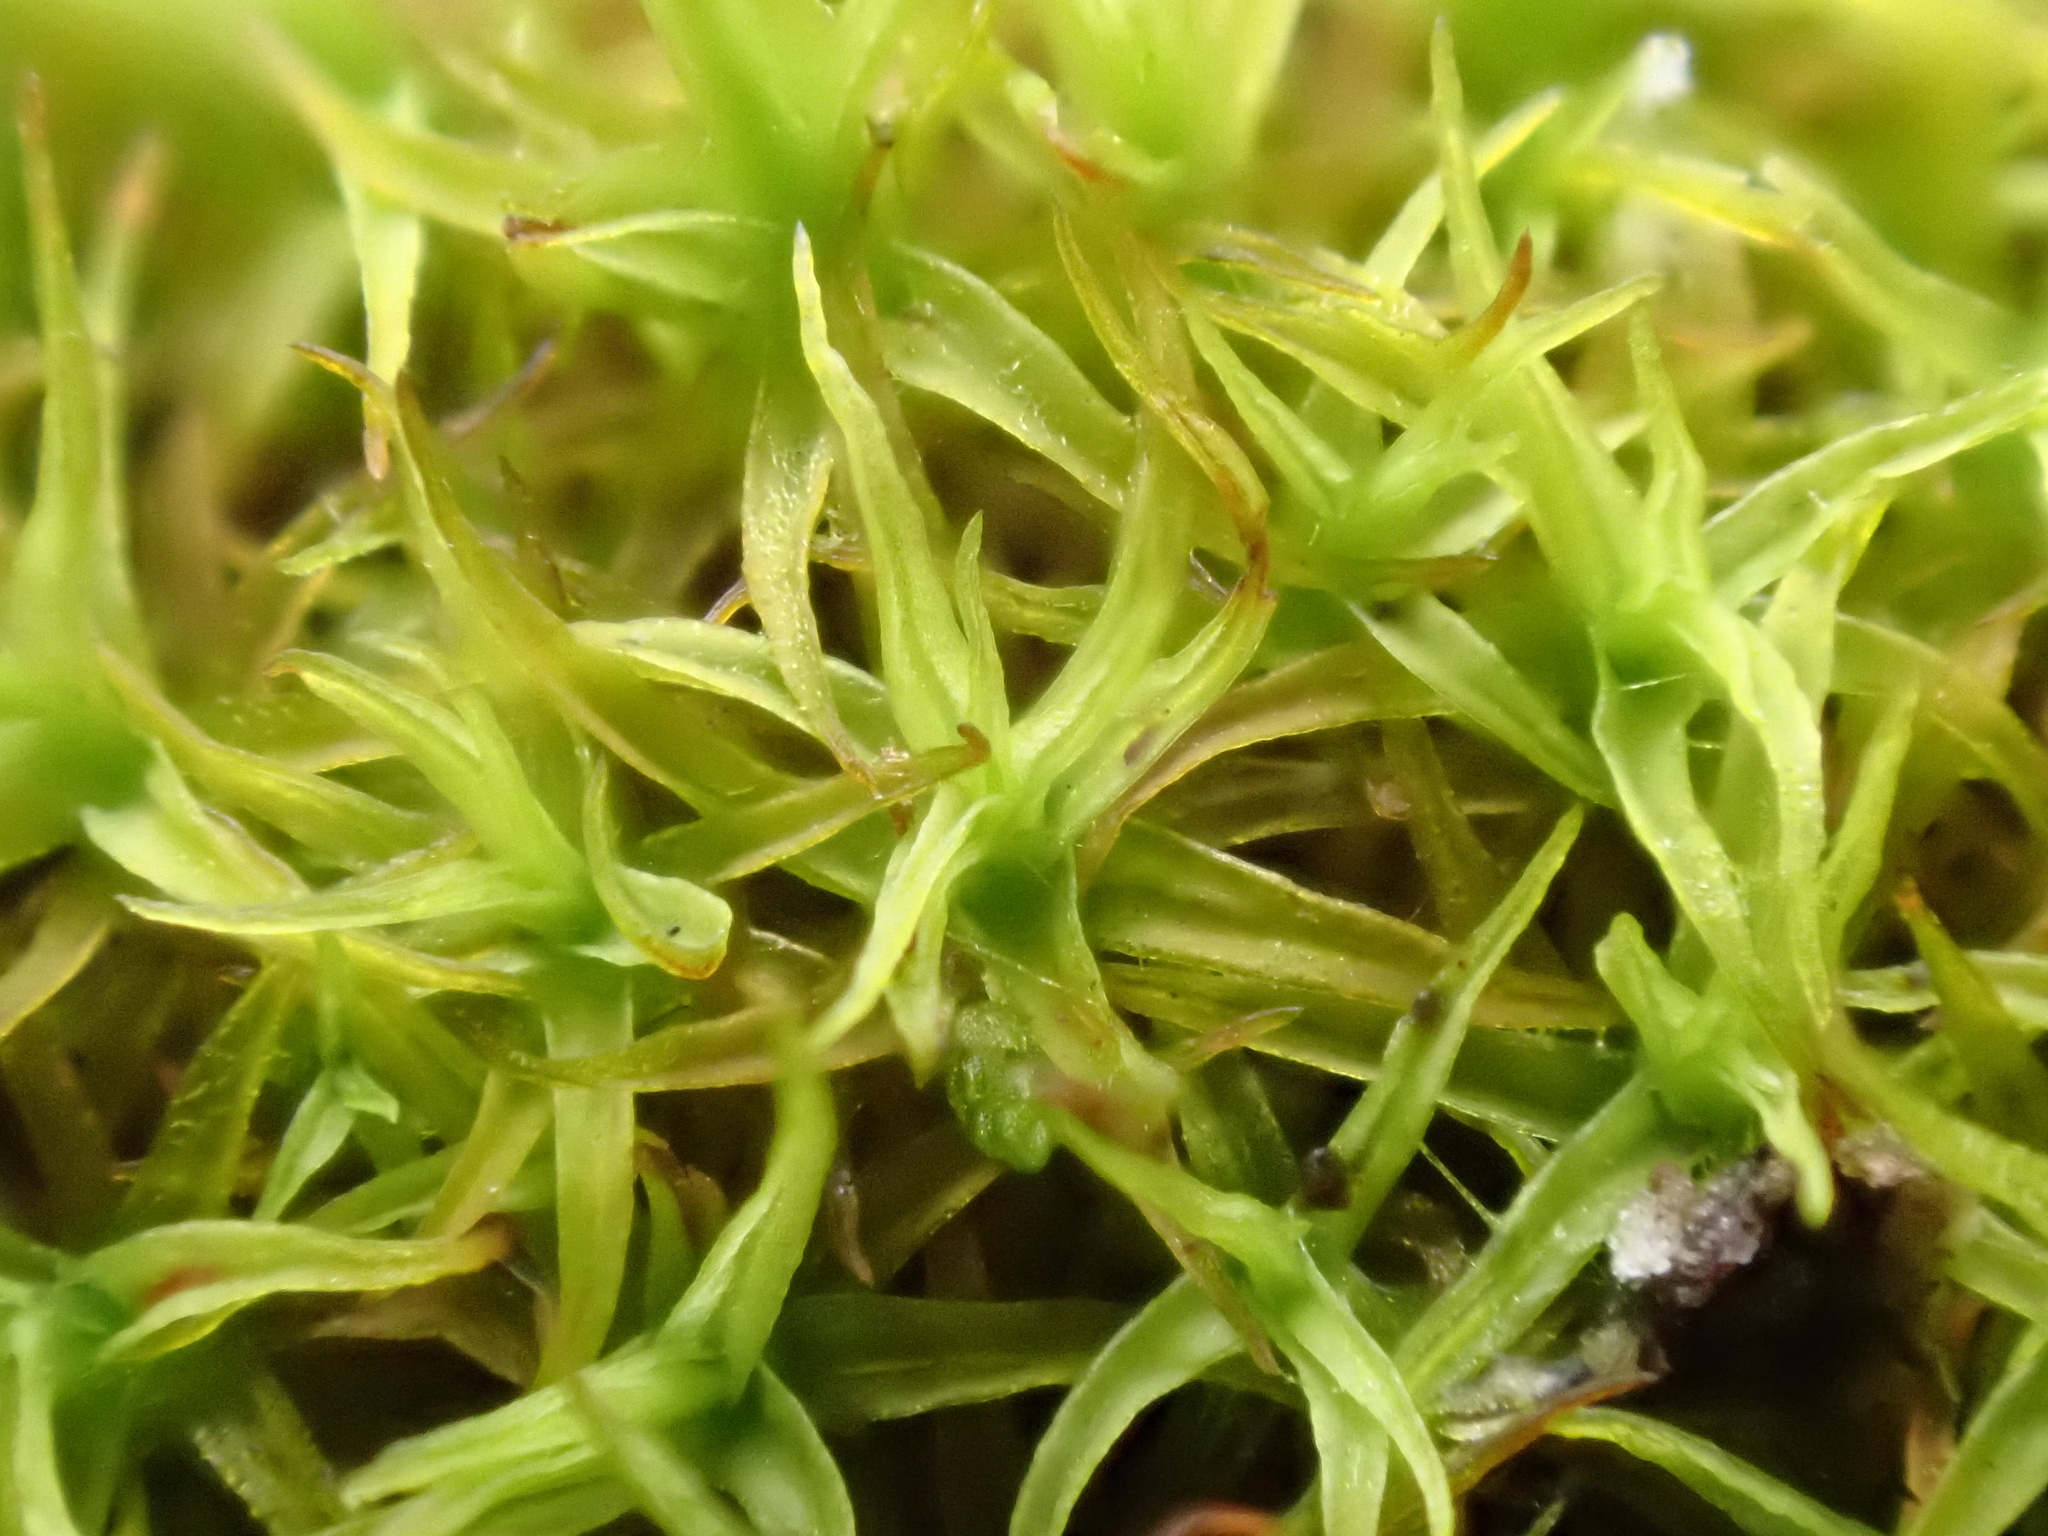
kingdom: Plantae
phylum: Bryophyta
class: Bryopsida
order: Pottiales
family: Pottiaceae
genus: Vinealobryum
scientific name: Vinealobryum vineale
